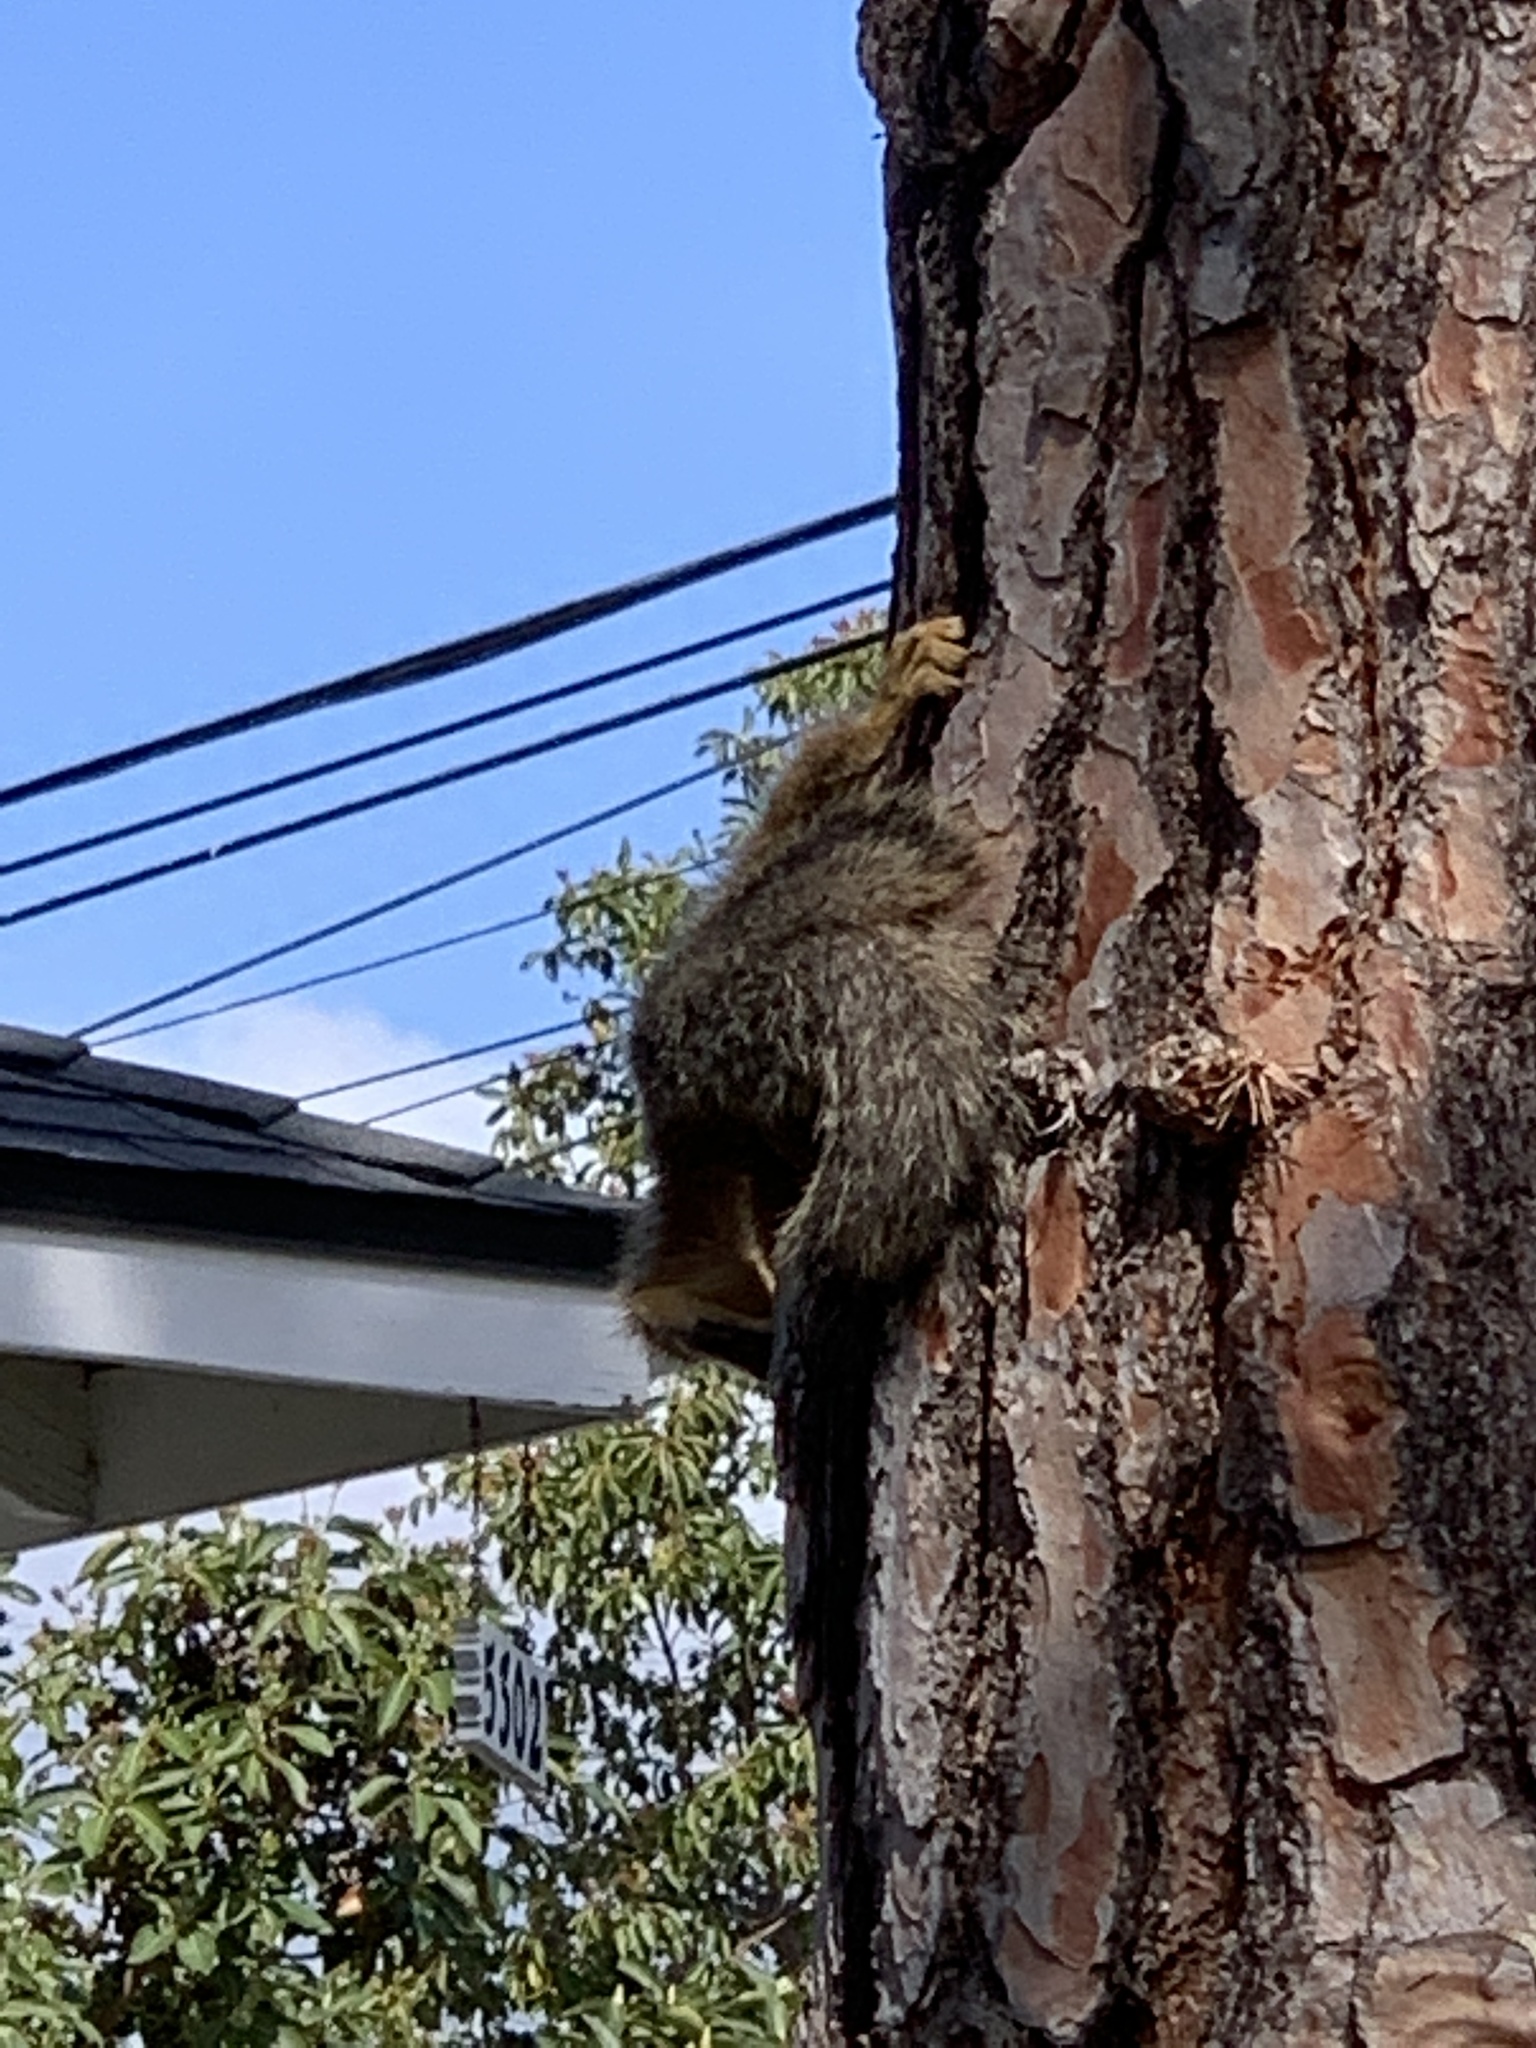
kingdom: Animalia
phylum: Chordata
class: Mammalia
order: Rodentia
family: Sciuridae
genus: Sciurus
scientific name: Sciurus niger
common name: Fox squirrel
